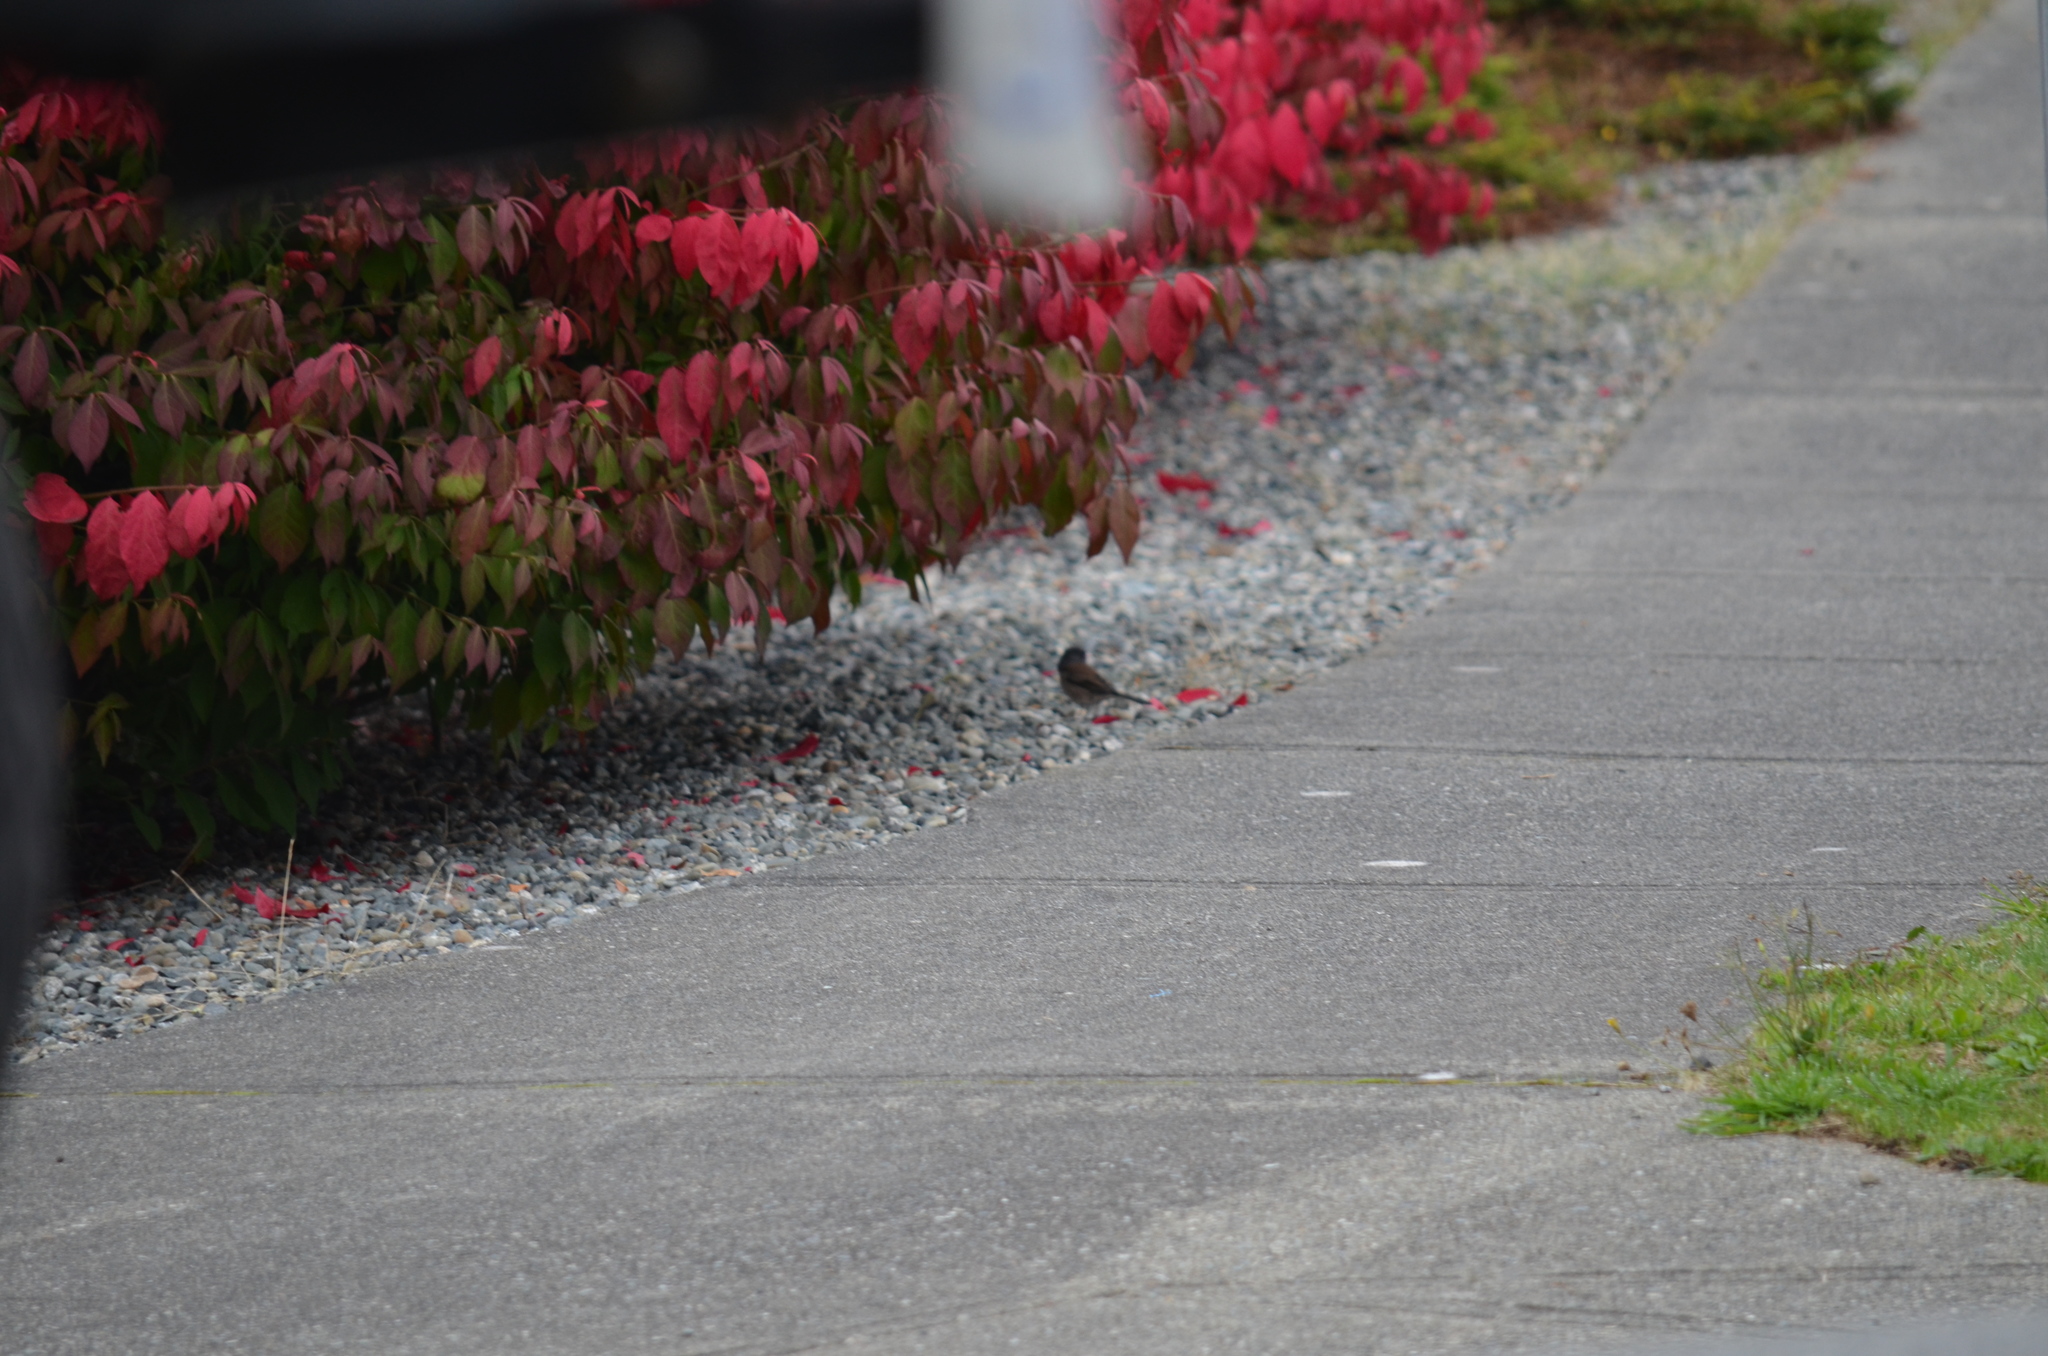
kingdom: Animalia
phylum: Chordata
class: Aves
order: Passeriformes
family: Passerellidae
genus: Junco
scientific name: Junco hyemalis
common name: Dark-eyed junco
